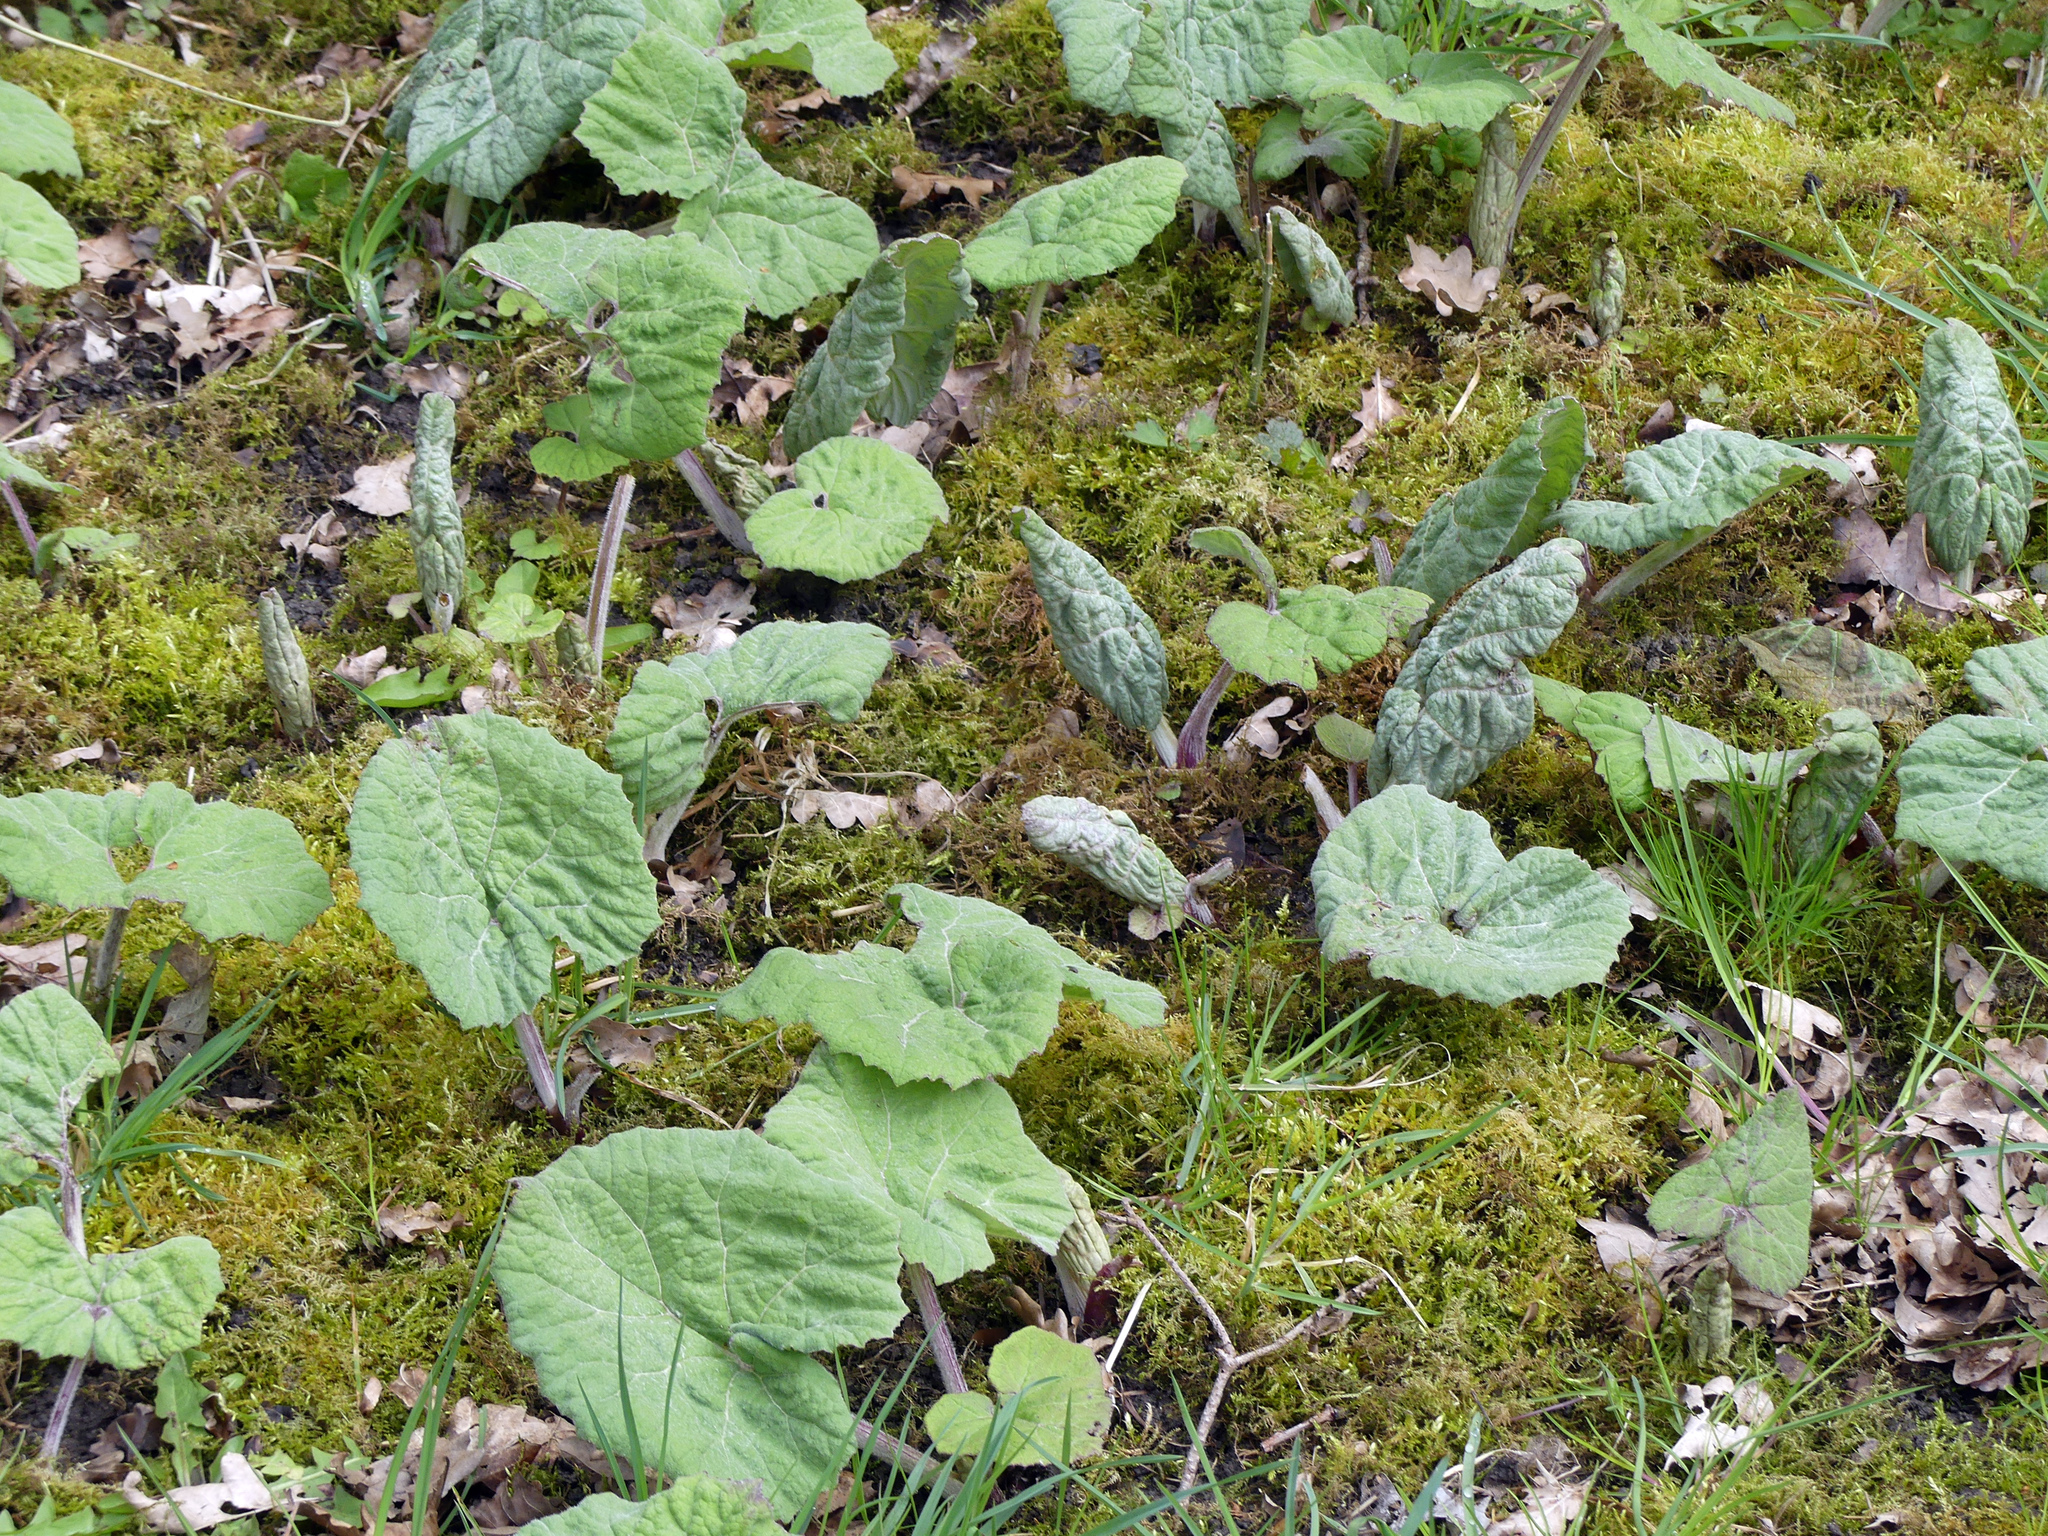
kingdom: Plantae
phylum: Tracheophyta
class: Magnoliopsida
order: Asterales
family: Asteraceae
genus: Petasites
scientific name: Petasites hybridus
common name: Butterbur
